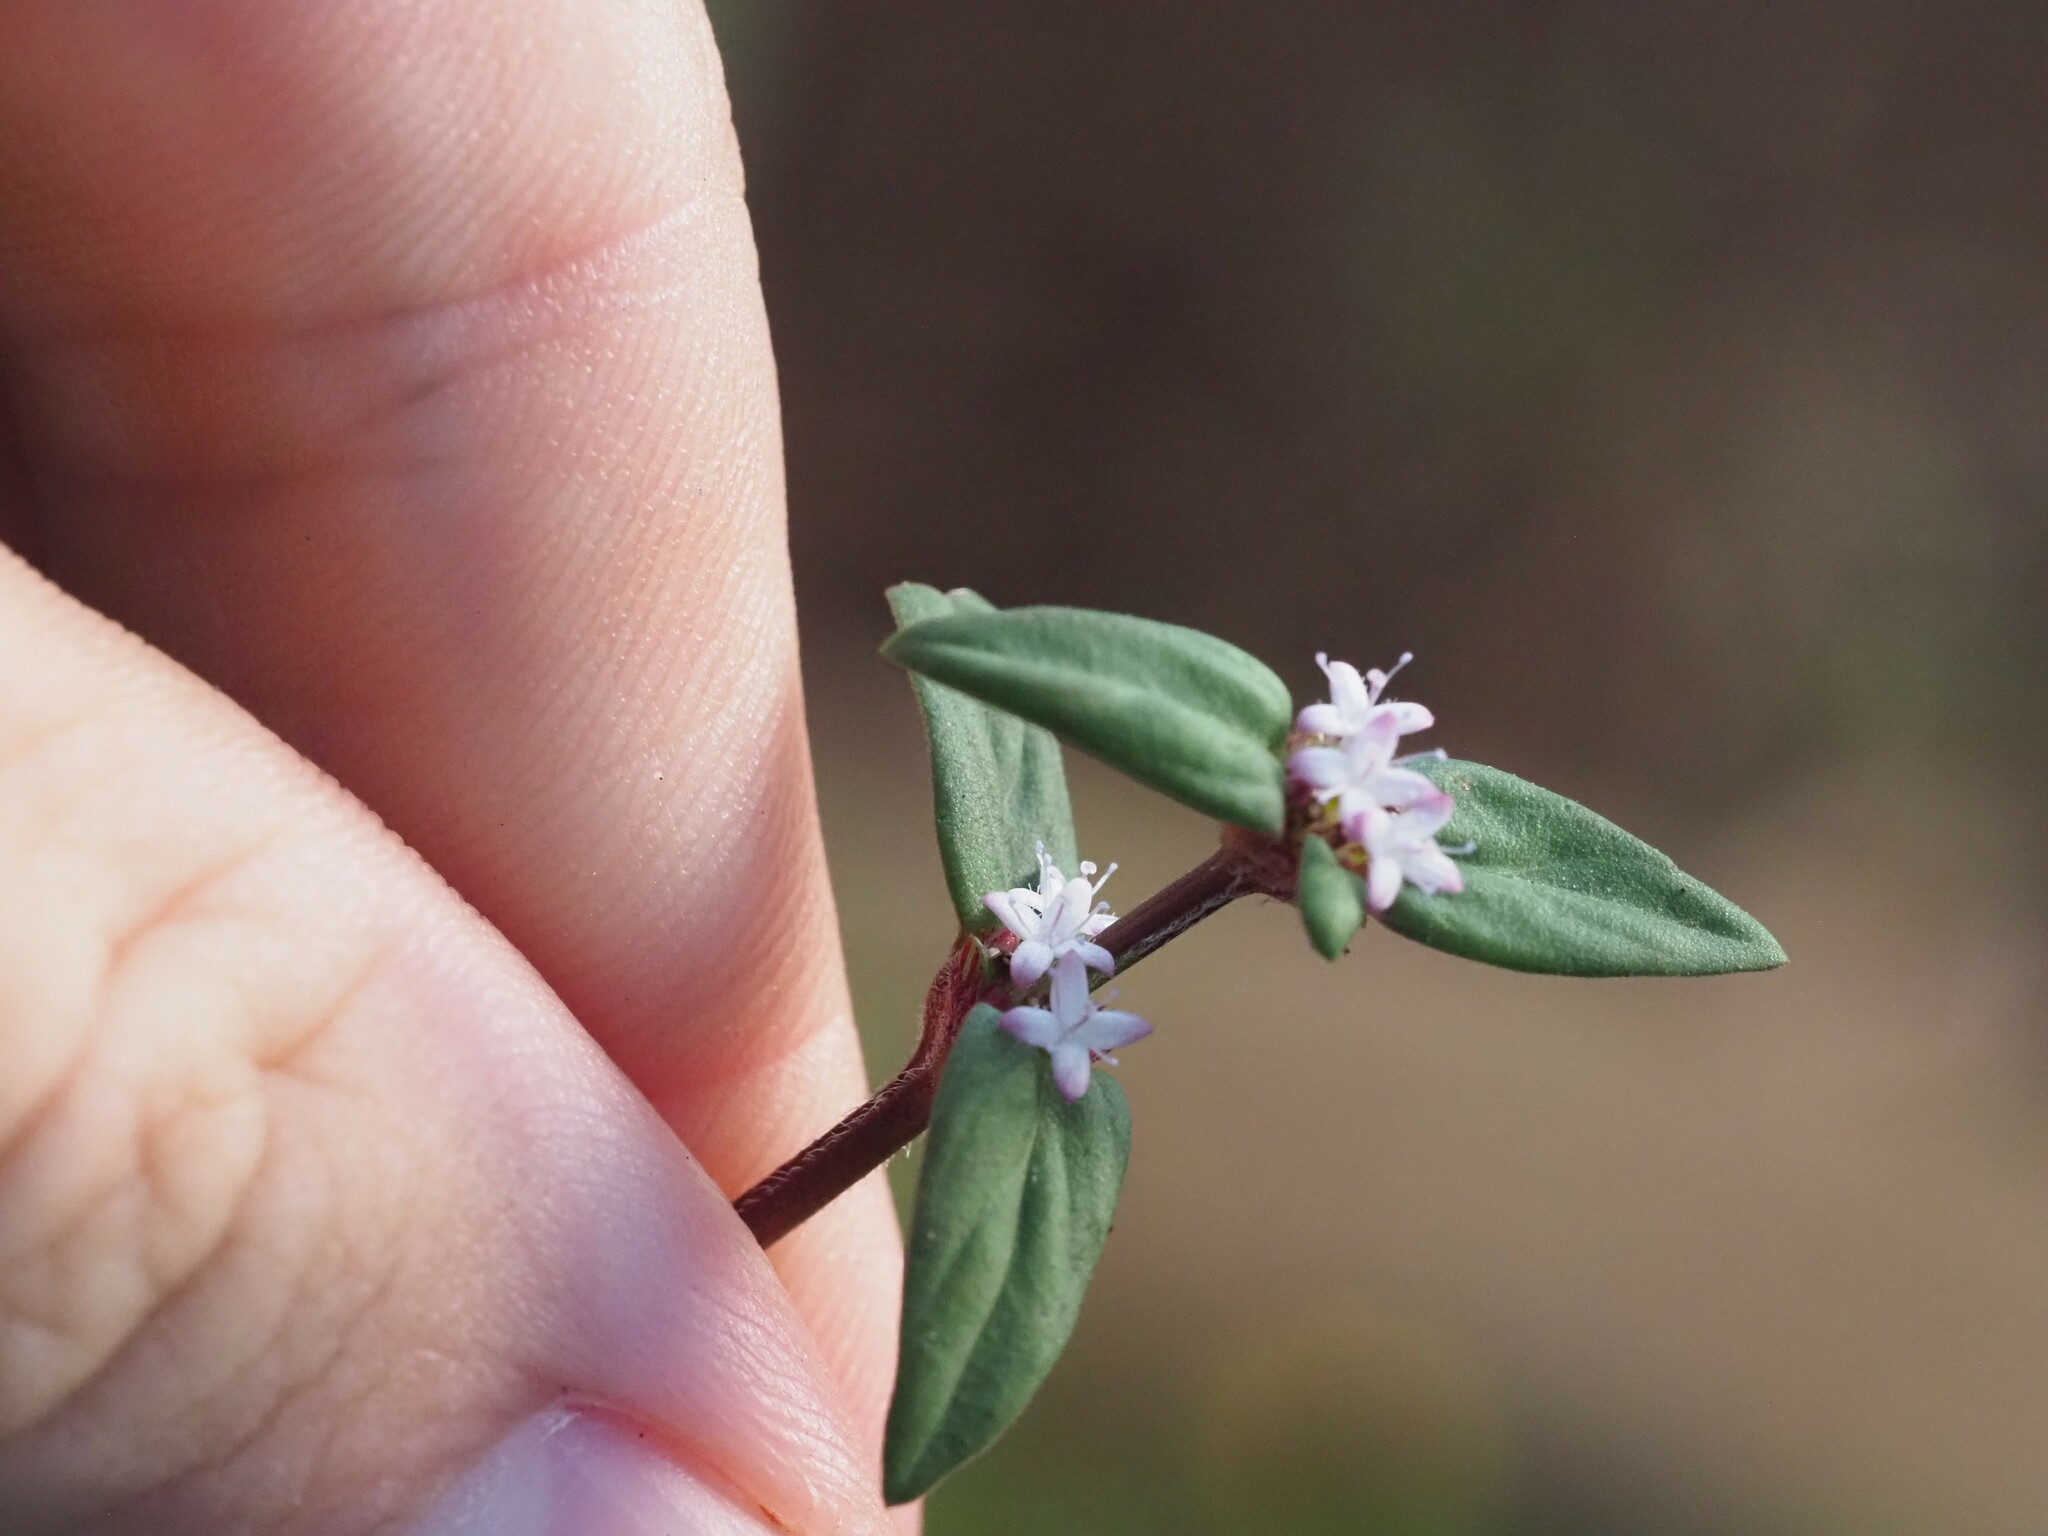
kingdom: Plantae
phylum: Tracheophyta
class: Magnoliopsida
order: Gentianales
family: Rubiaceae
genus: Spermacoce
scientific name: Spermacoce remota
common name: Woodland false buttonweed
